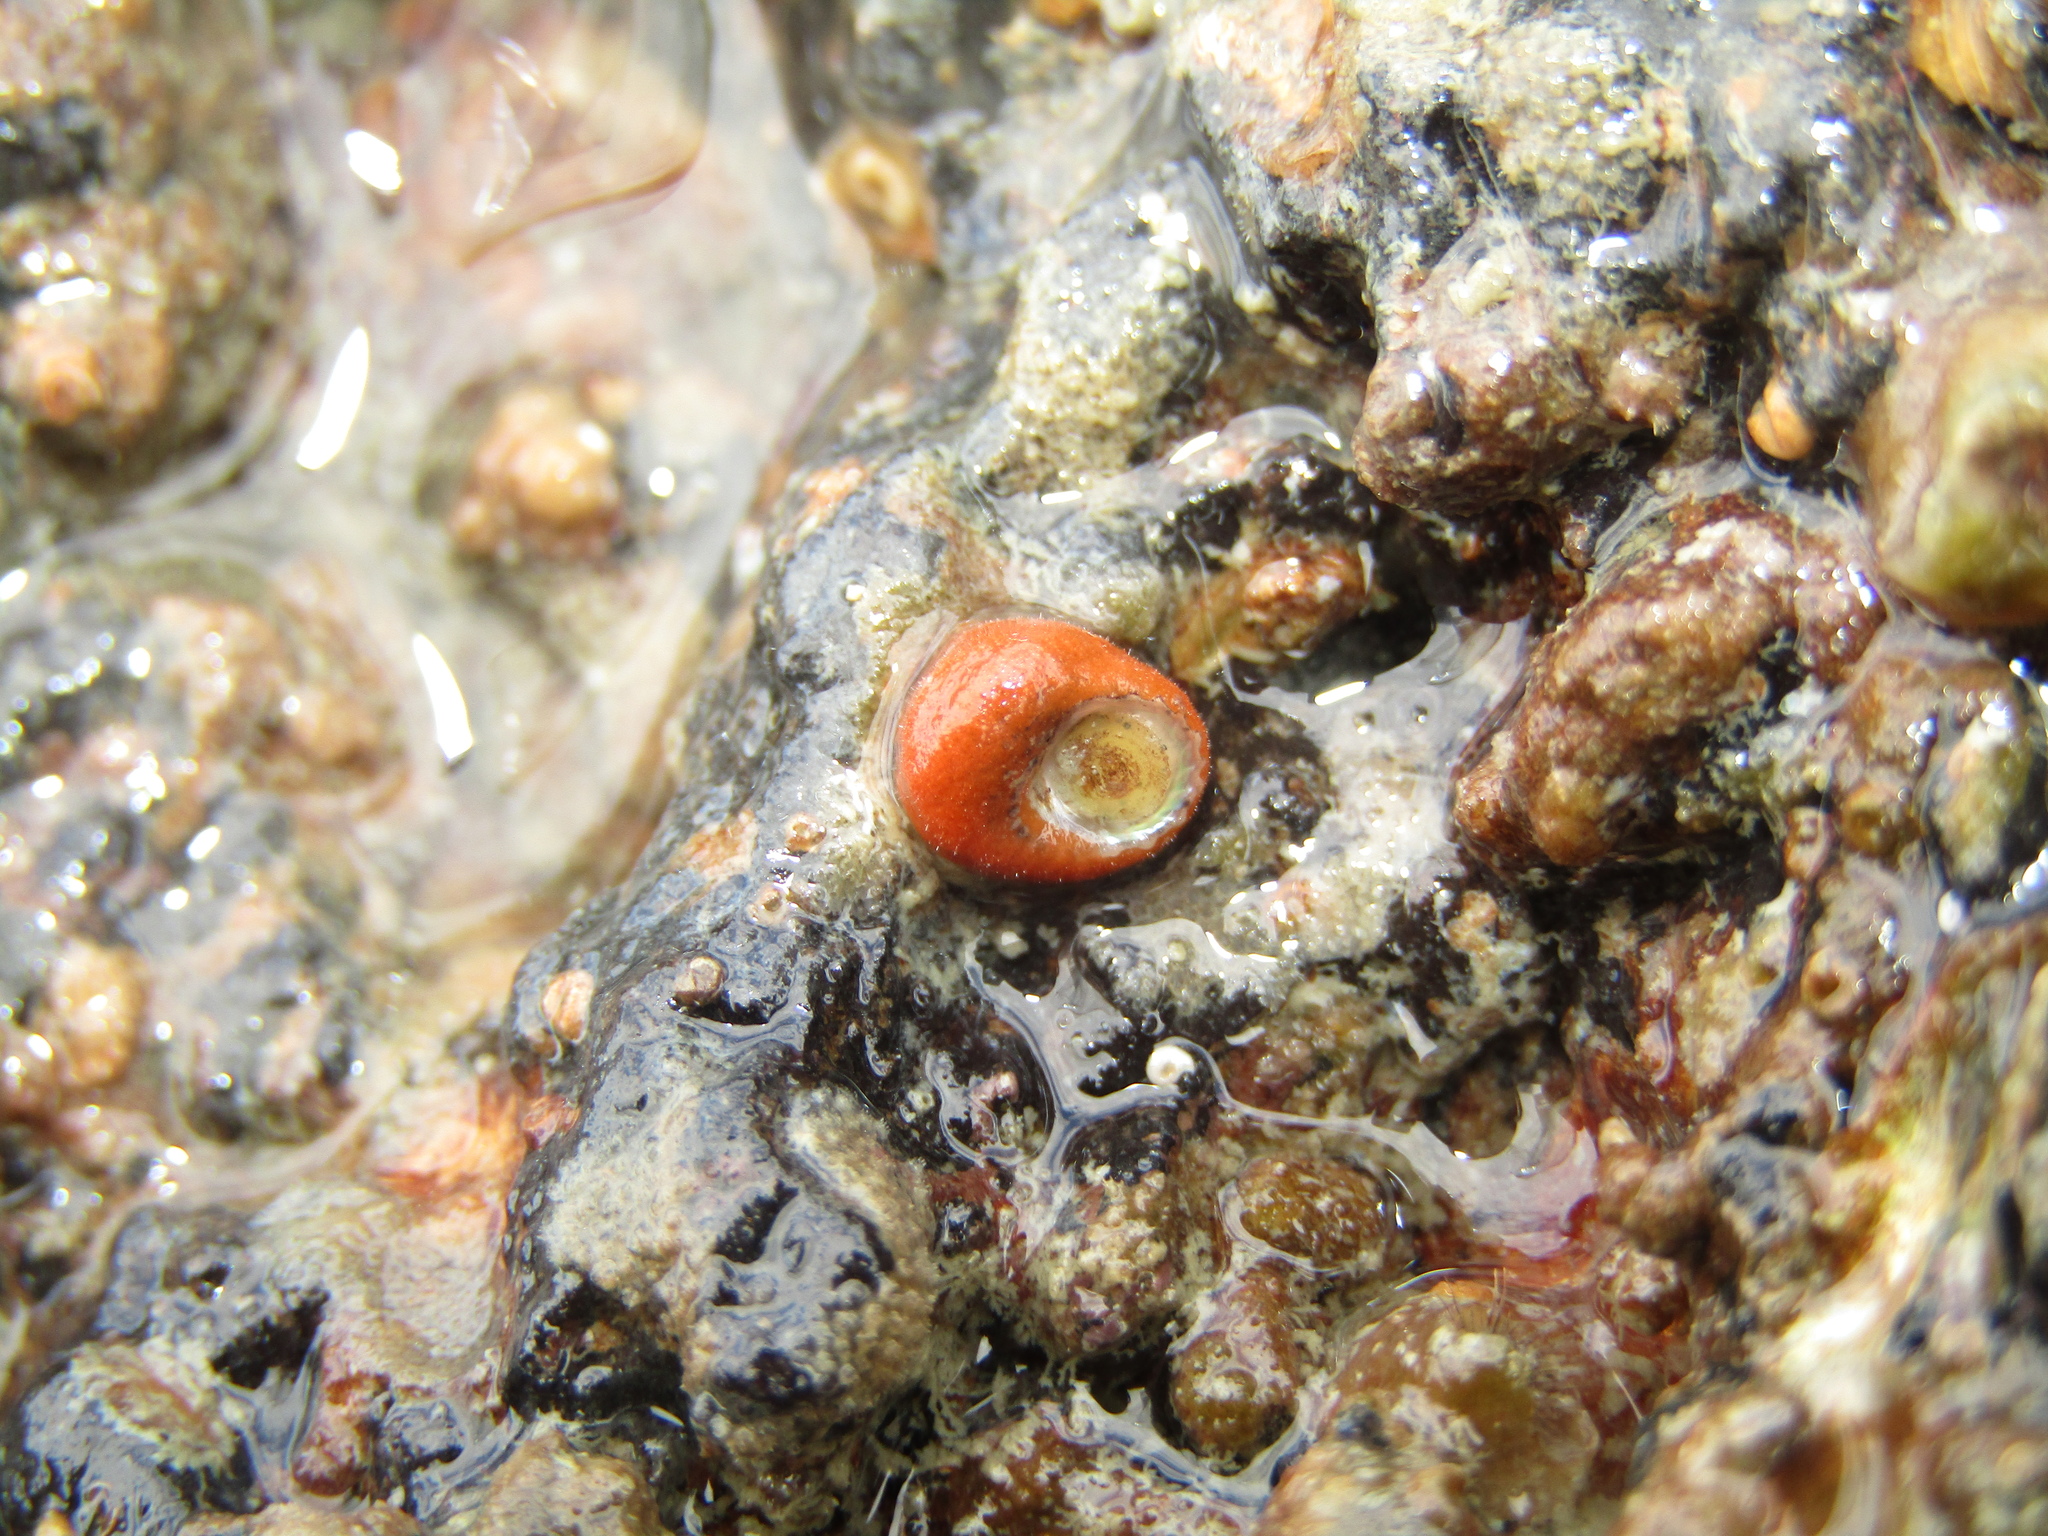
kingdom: Animalia
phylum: Mollusca
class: Gastropoda
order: Seguenziida
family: Chilodontaidae
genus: Herpetopoma
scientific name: Herpetopoma bellum
